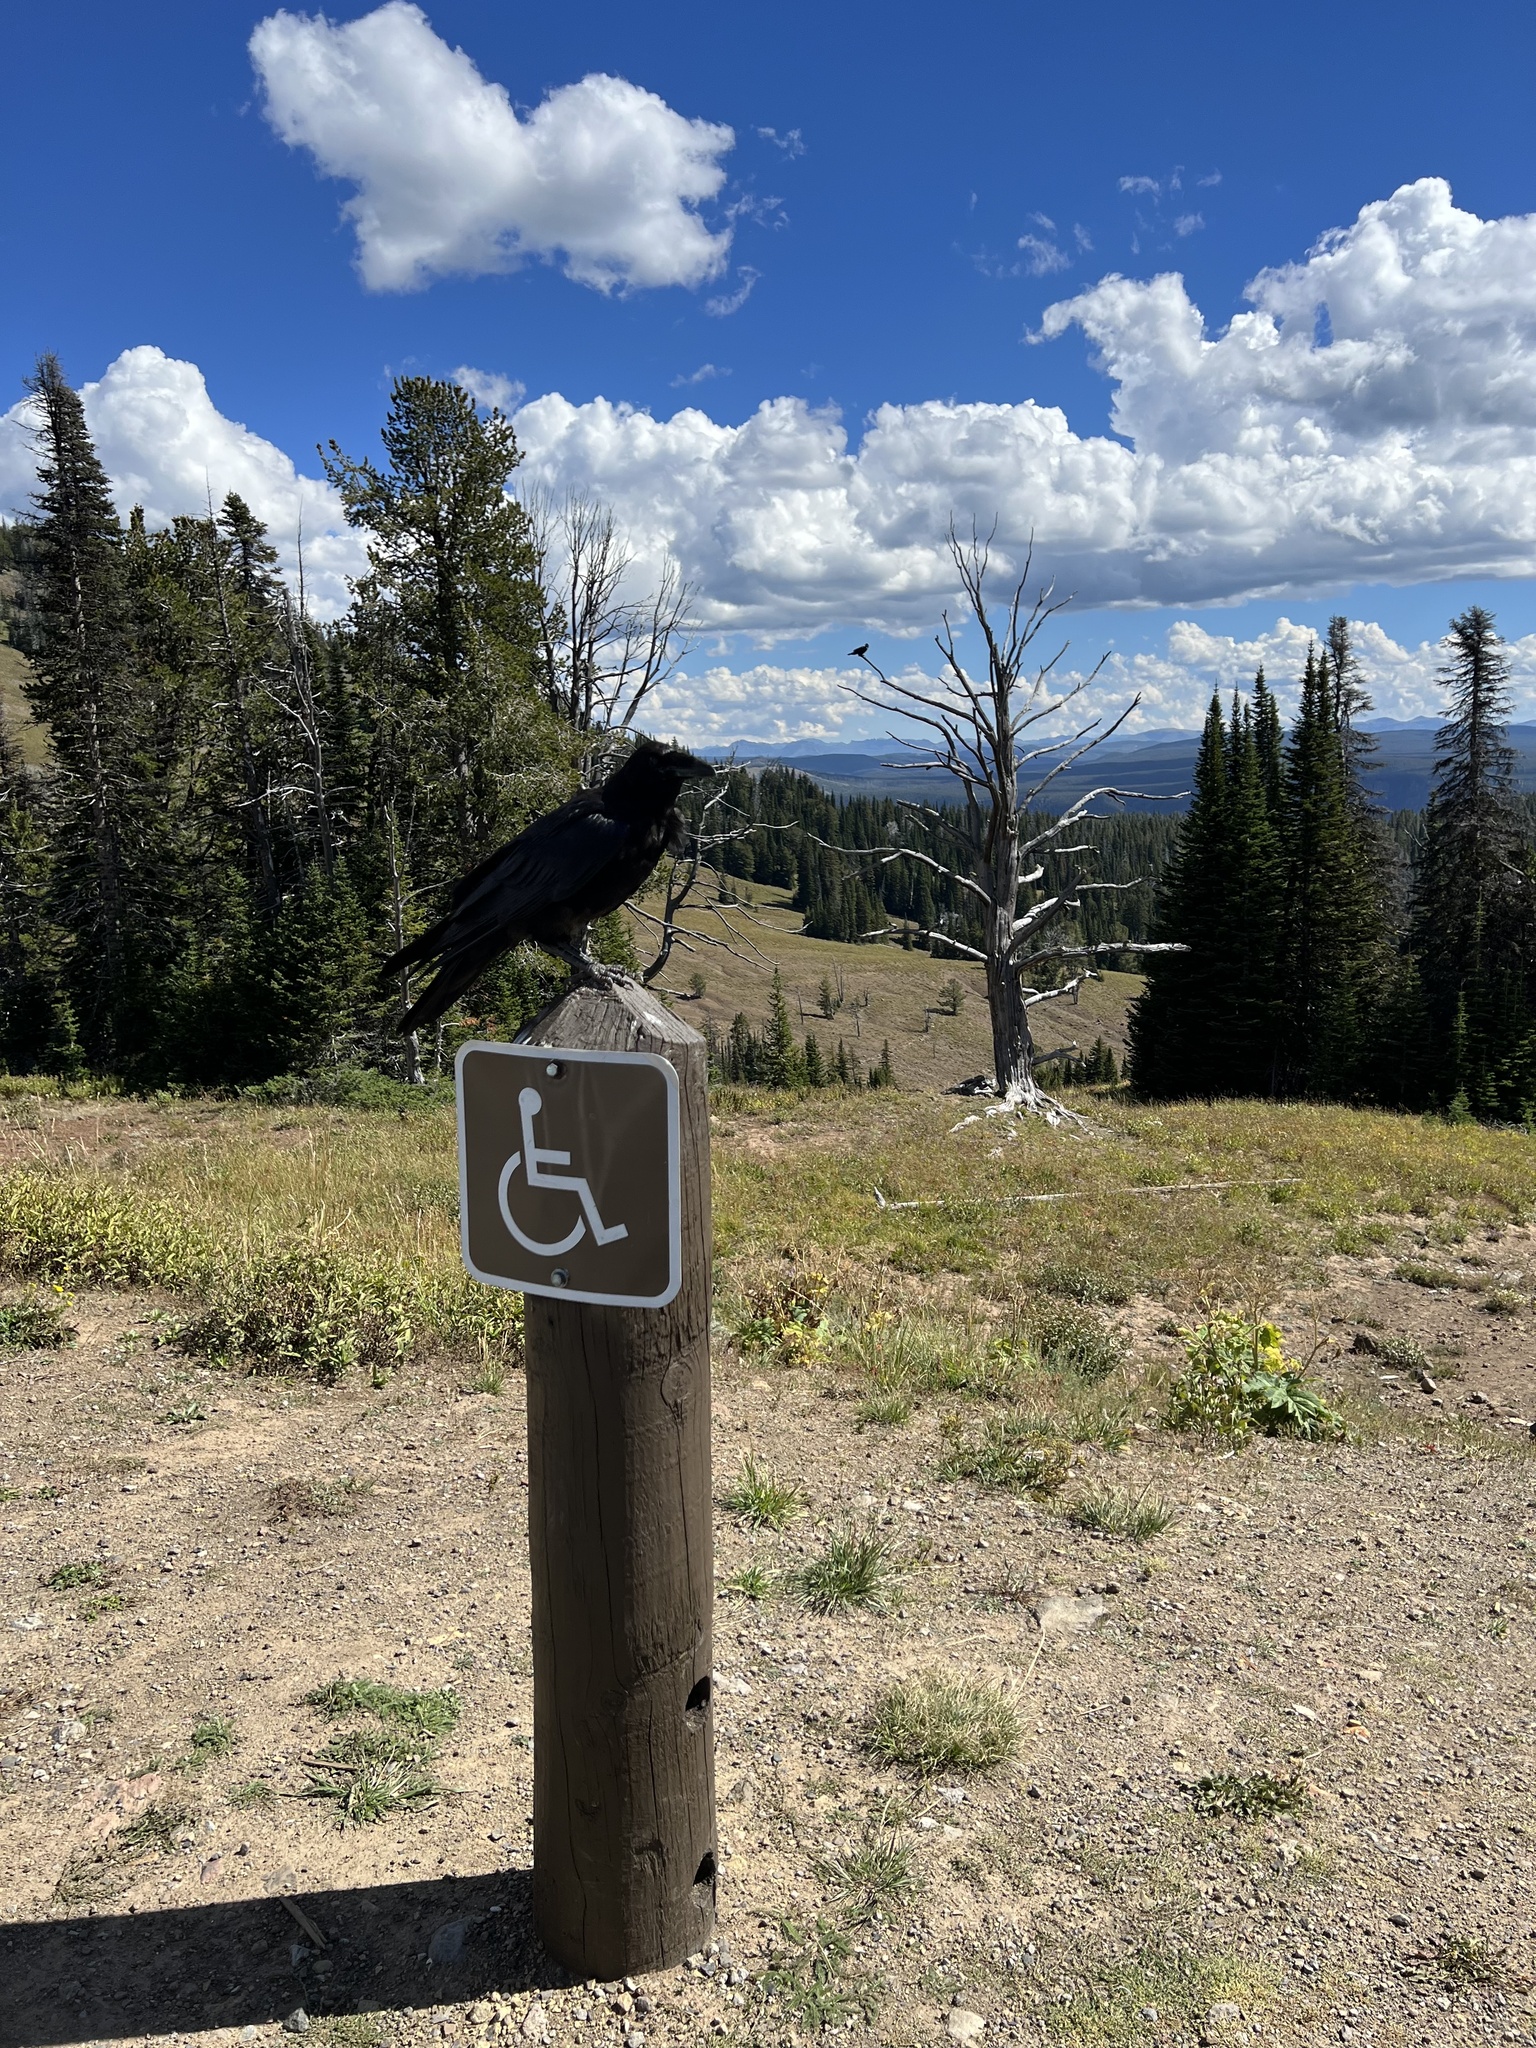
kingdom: Animalia
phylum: Chordata
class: Aves
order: Passeriformes
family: Corvidae
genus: Corvus
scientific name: Corvus corax
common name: Common raven
